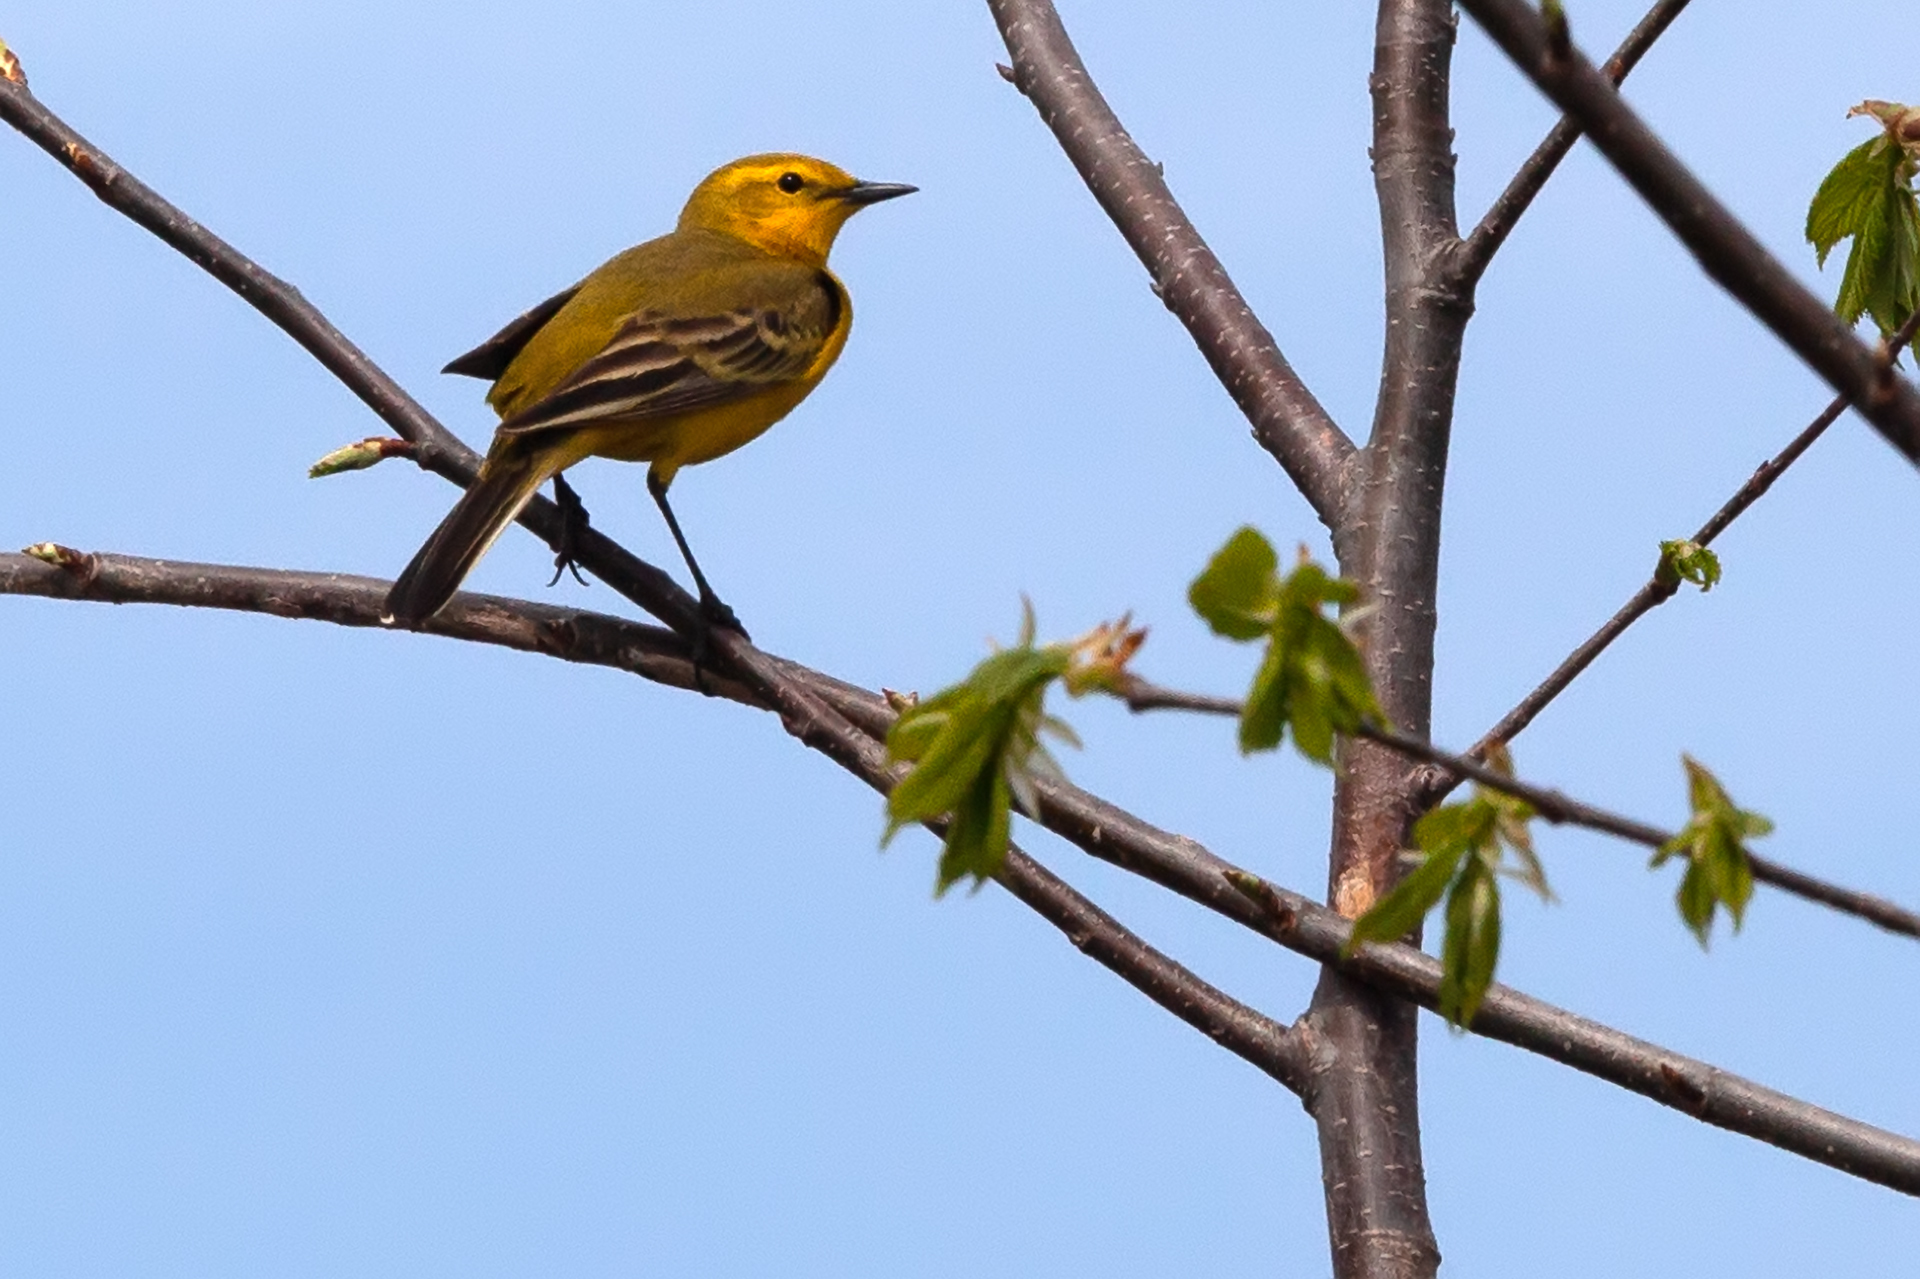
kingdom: Animalia
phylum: Chordata
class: Aves
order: Passeriformes
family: Motacillidae
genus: Motacilla
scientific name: Motacilla flava
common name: Western yellow wagtail
